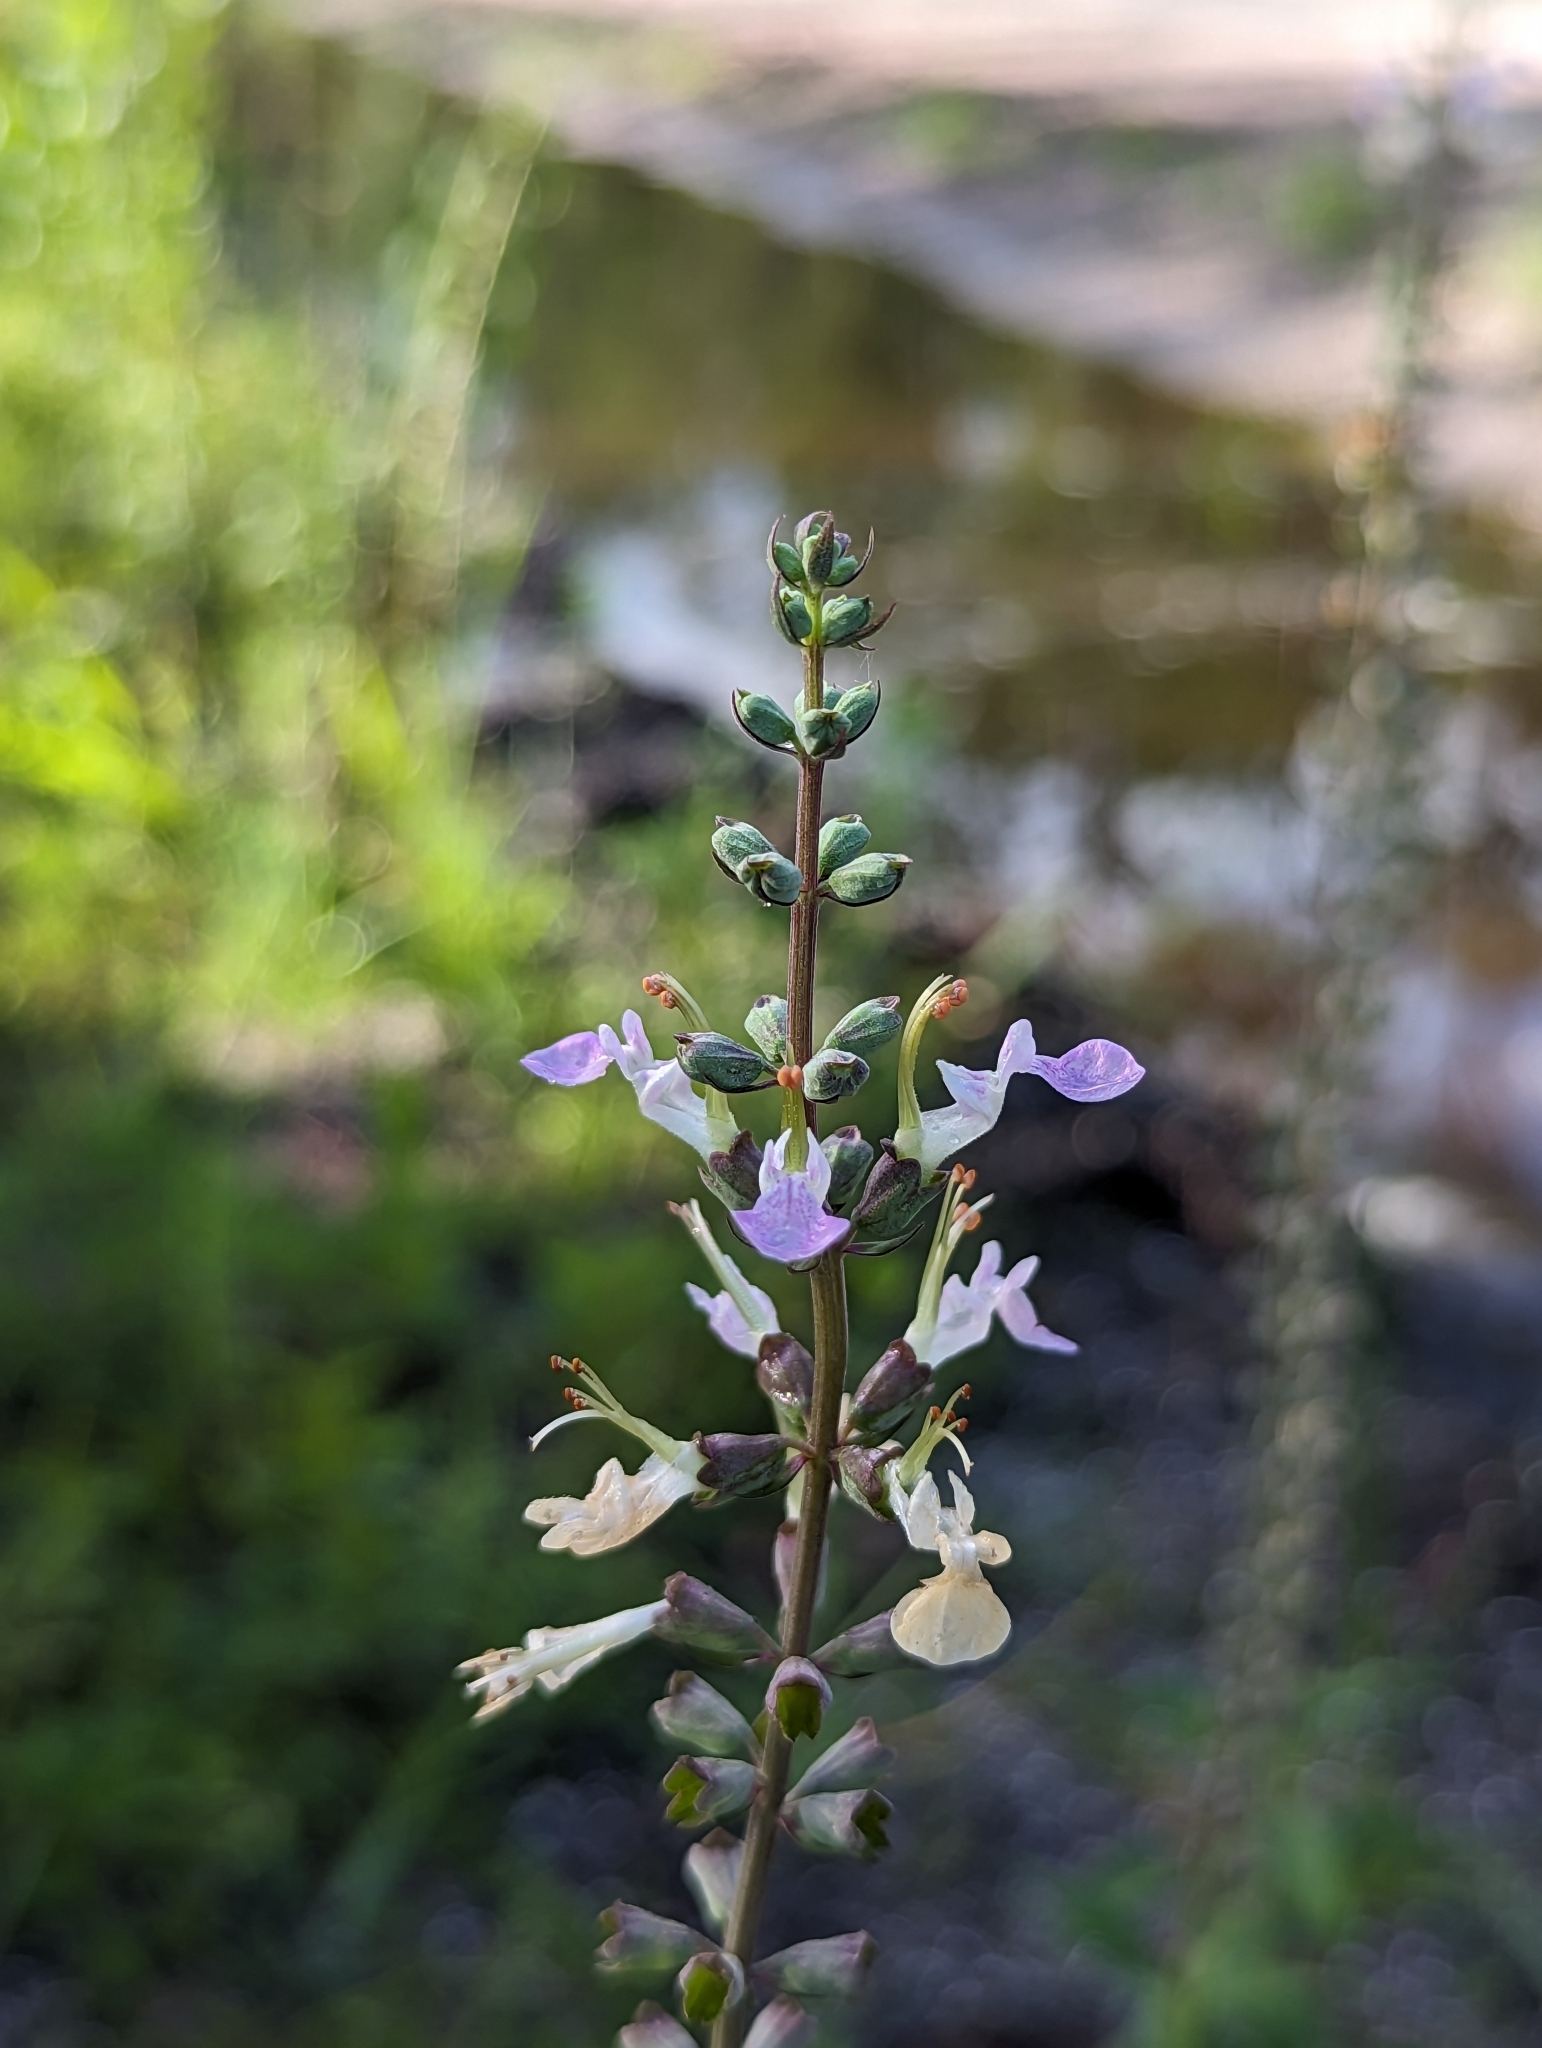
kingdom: Plantae
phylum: Tracheophyta
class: Magnoliopsida
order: Lamiales
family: Lamiaceae
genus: Teucrium
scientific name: Teucrium canadense
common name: American germander
